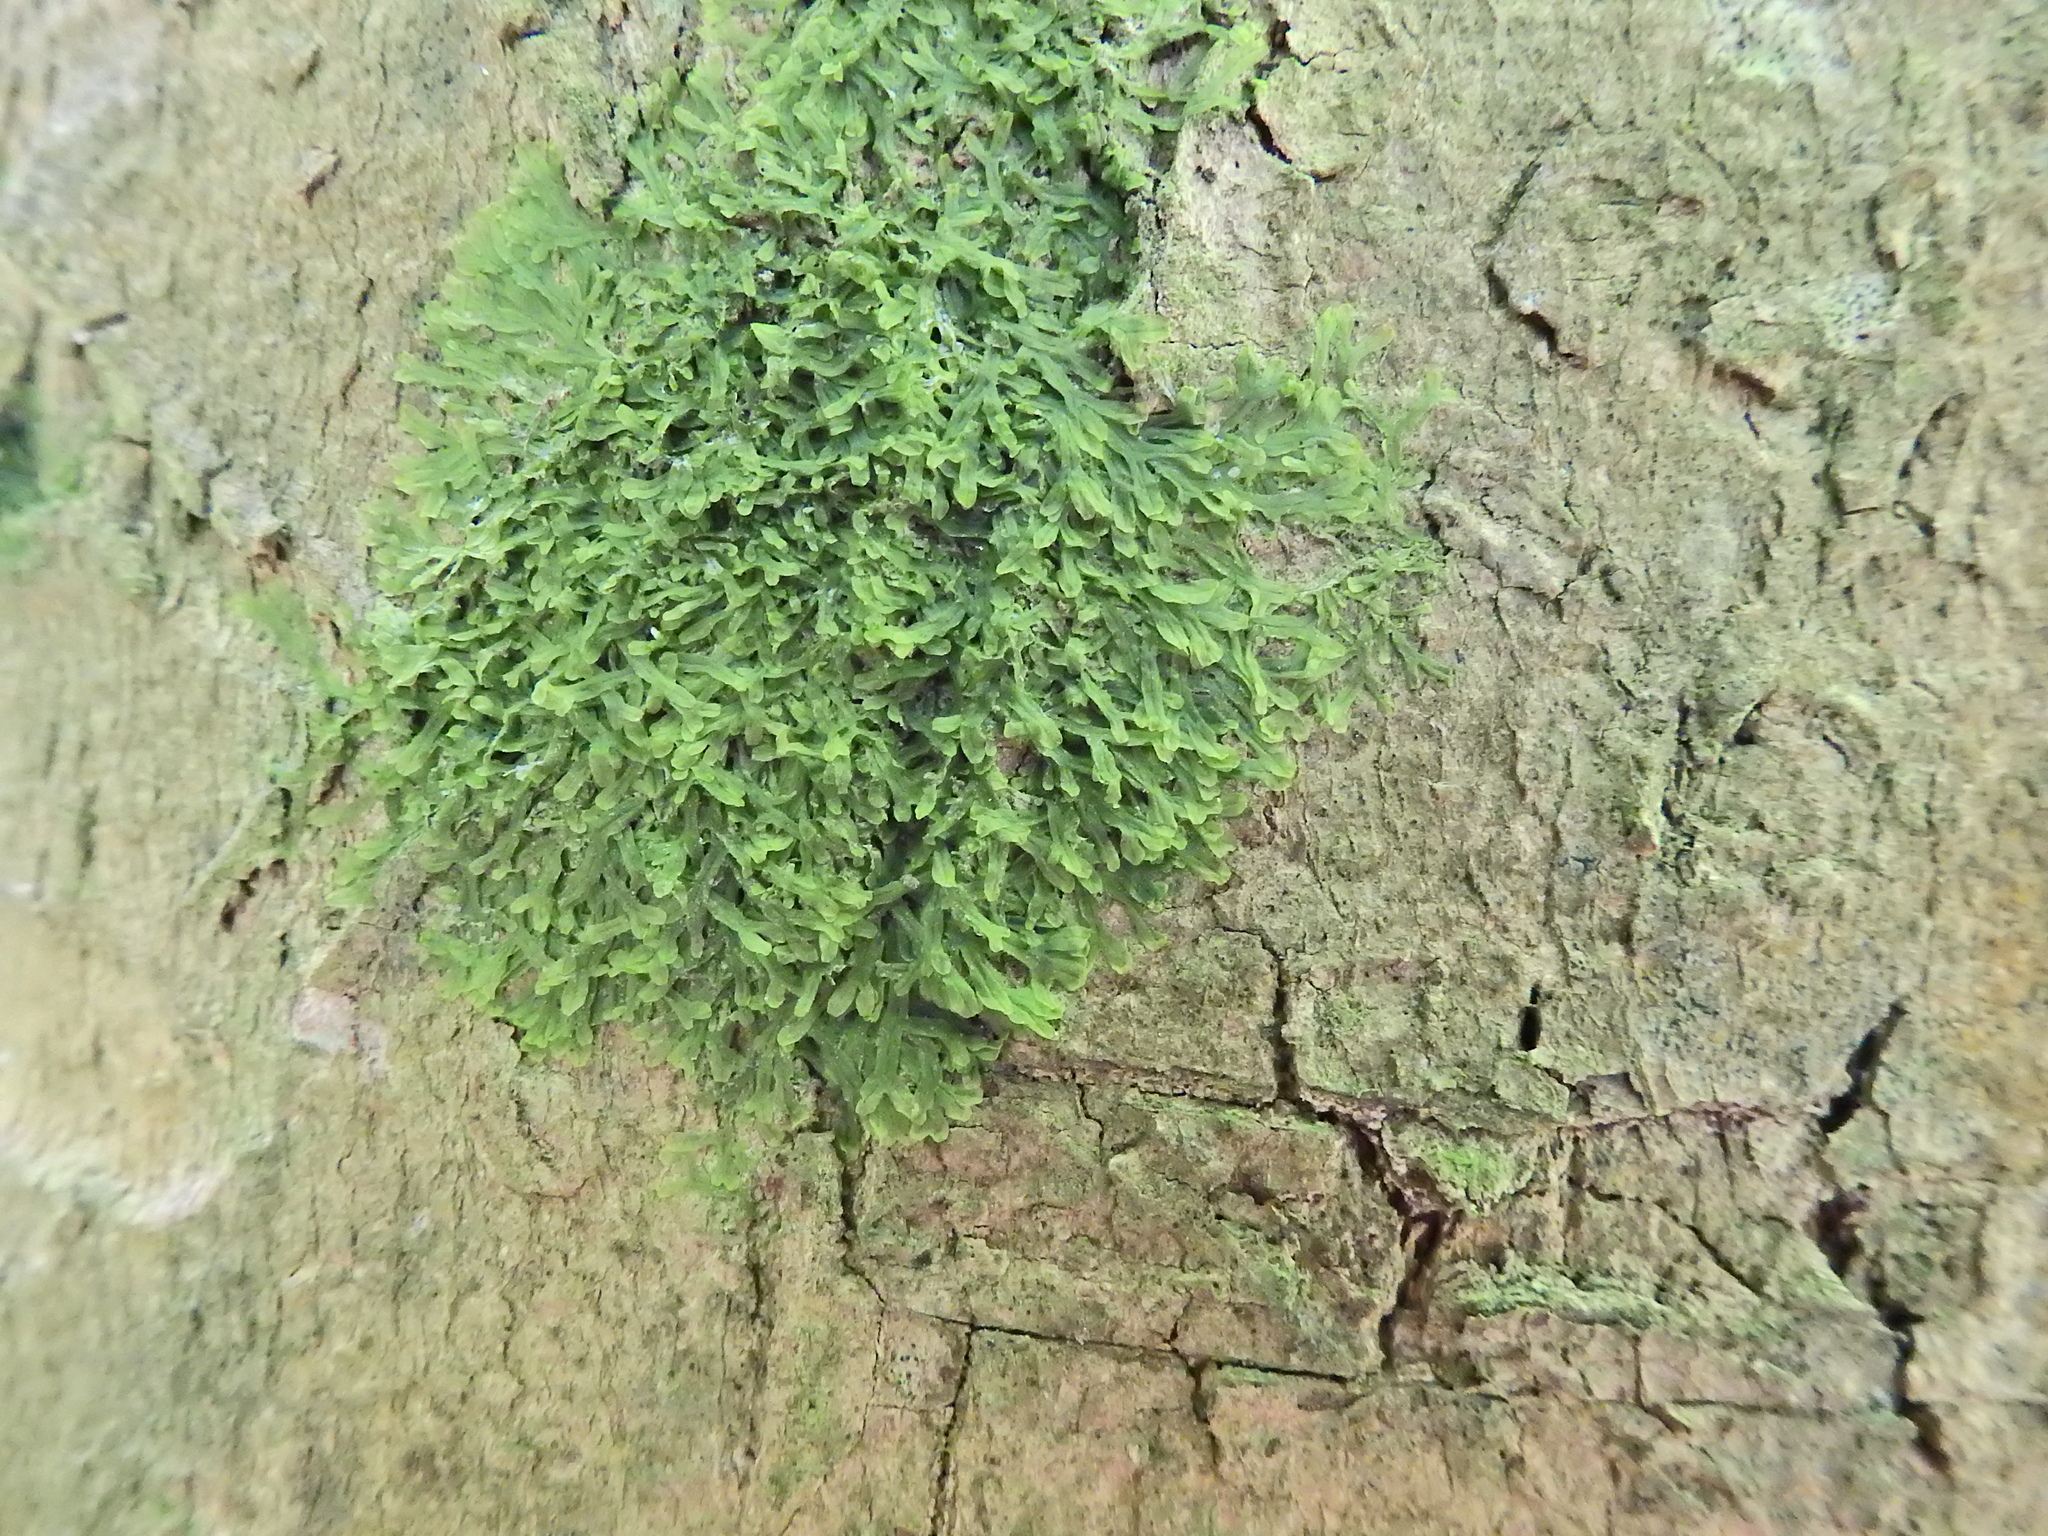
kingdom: Plantae
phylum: Marchantiophyta
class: Jungermanniopsida
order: Metzgeriales
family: Metzgeriaceae
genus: Metzgeria
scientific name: Metzgeria furcata
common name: Forked veilwort
